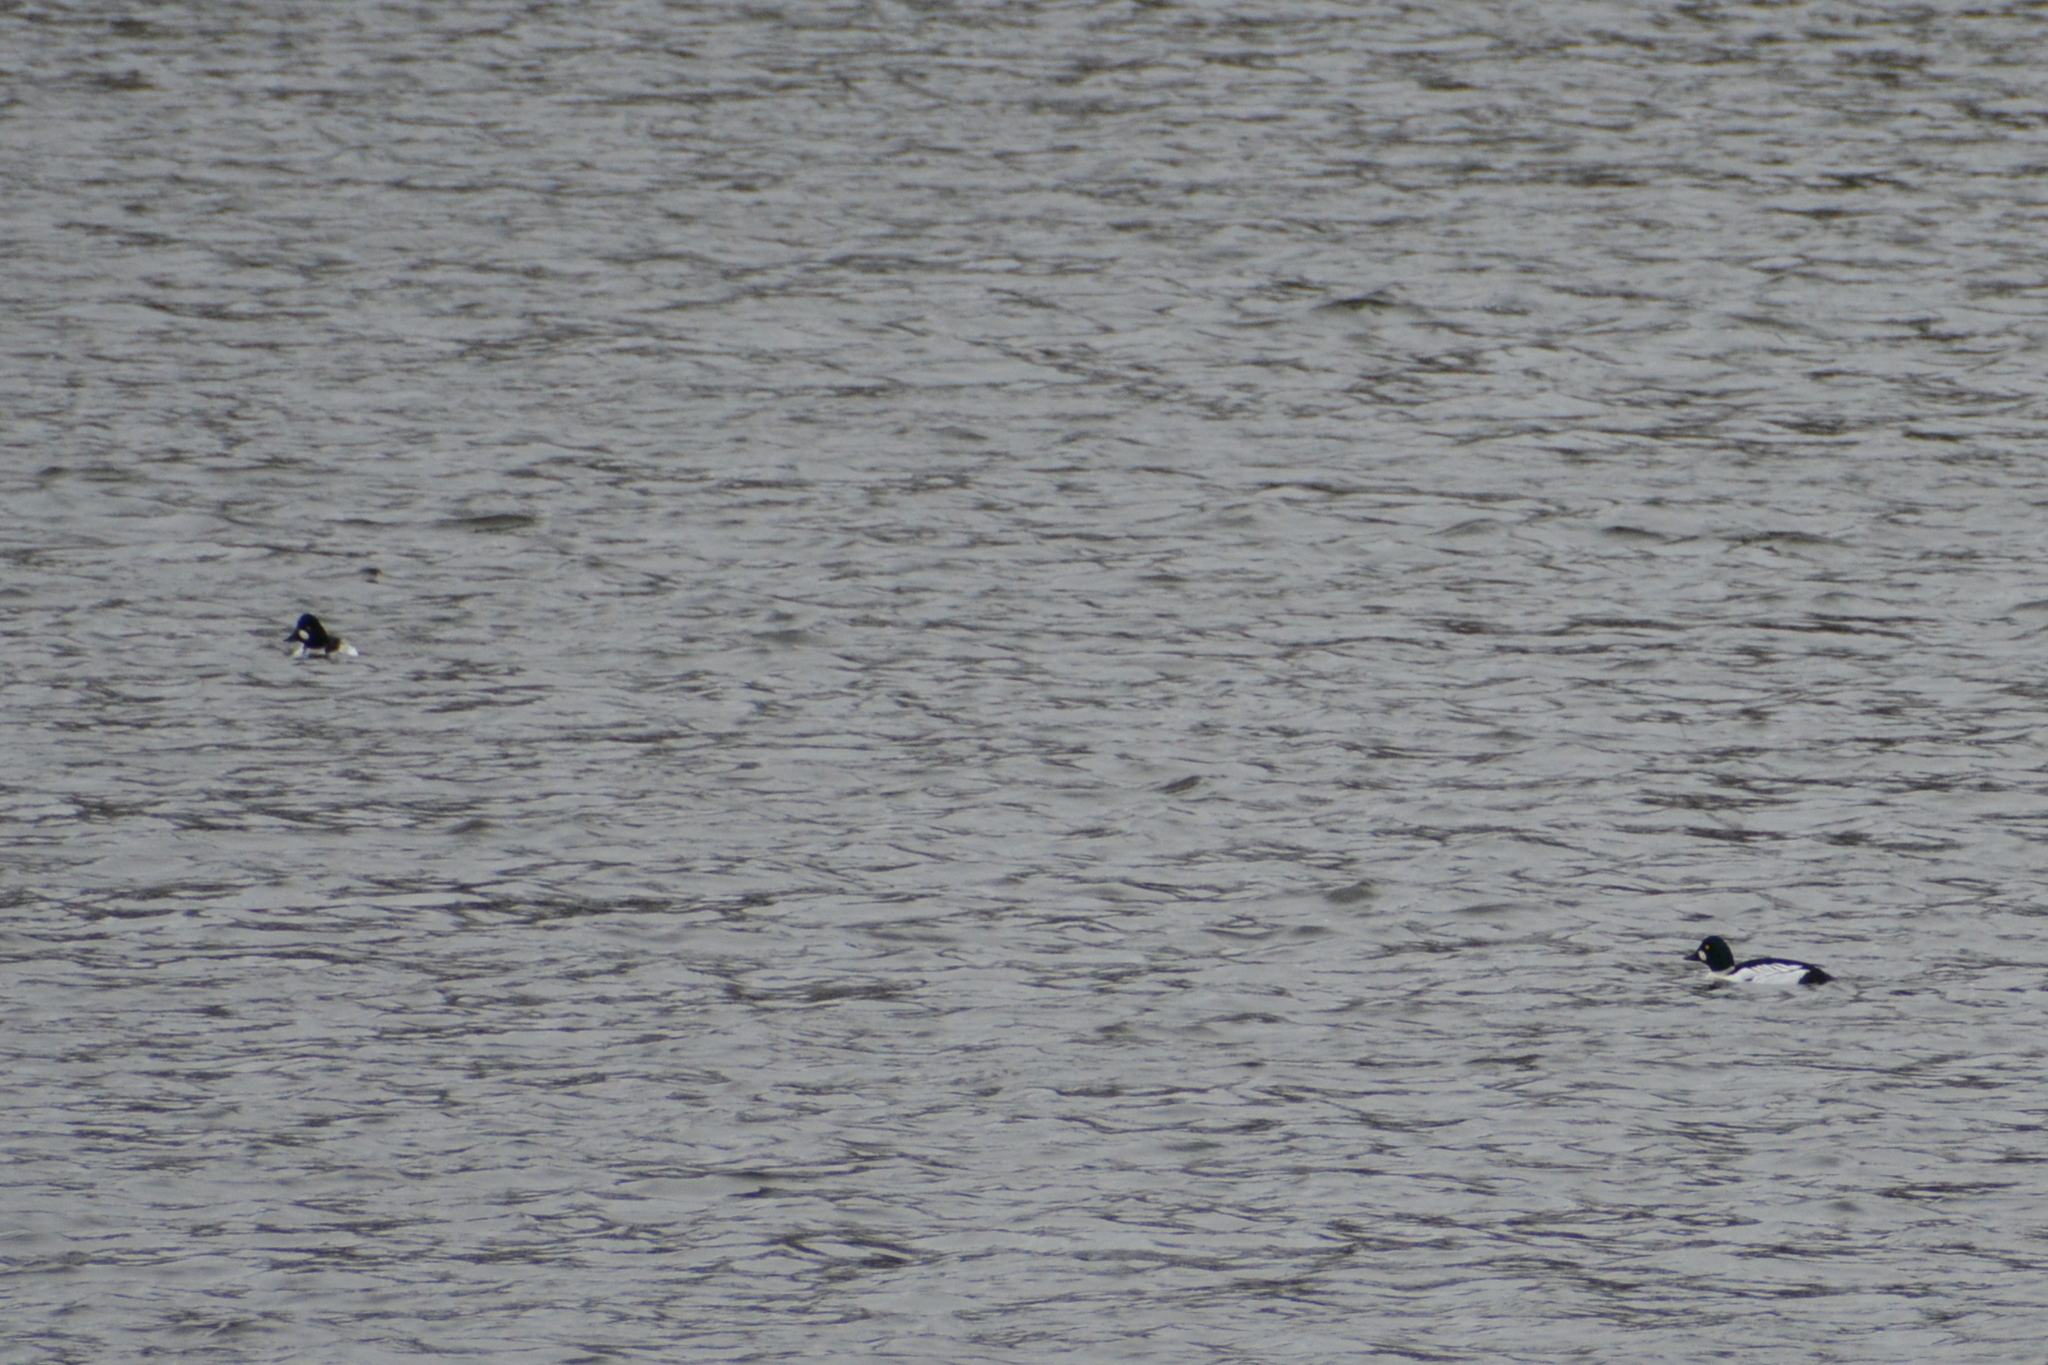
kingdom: Animalia
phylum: Chordata
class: Aves
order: Anseriformes
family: Anatidae
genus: Bucephala
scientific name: Bucephala clangula
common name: Common goldeneye
